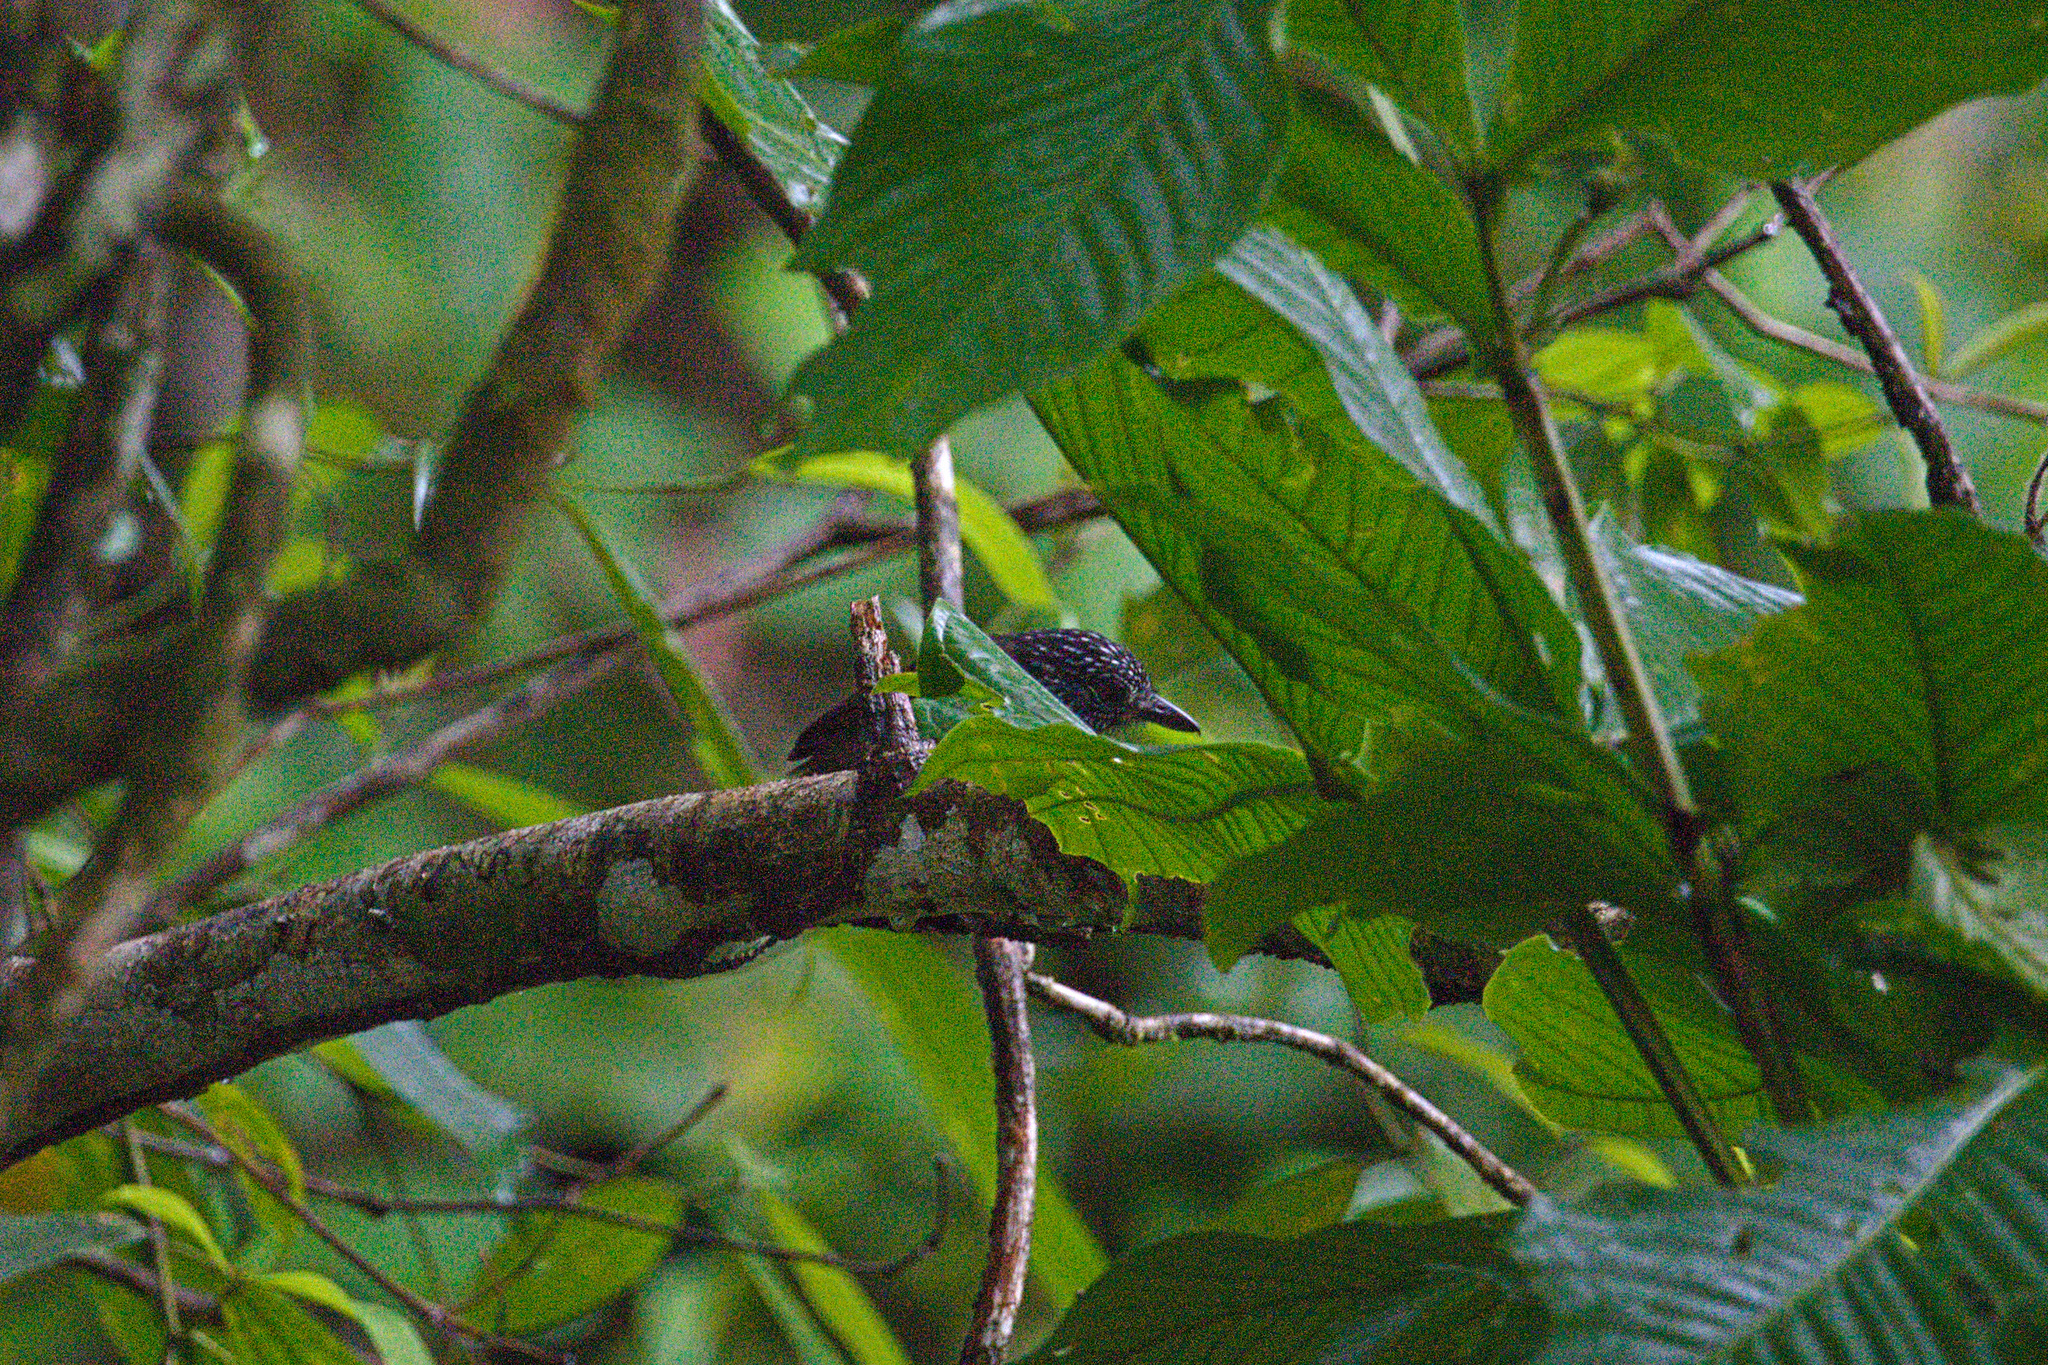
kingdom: Animalia
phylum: Chordata
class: Aves
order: Passeriformes
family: Thamnophilidae
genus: Thamnophilus
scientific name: Thamnophilus bridgesi
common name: Black-hooded antshrike
